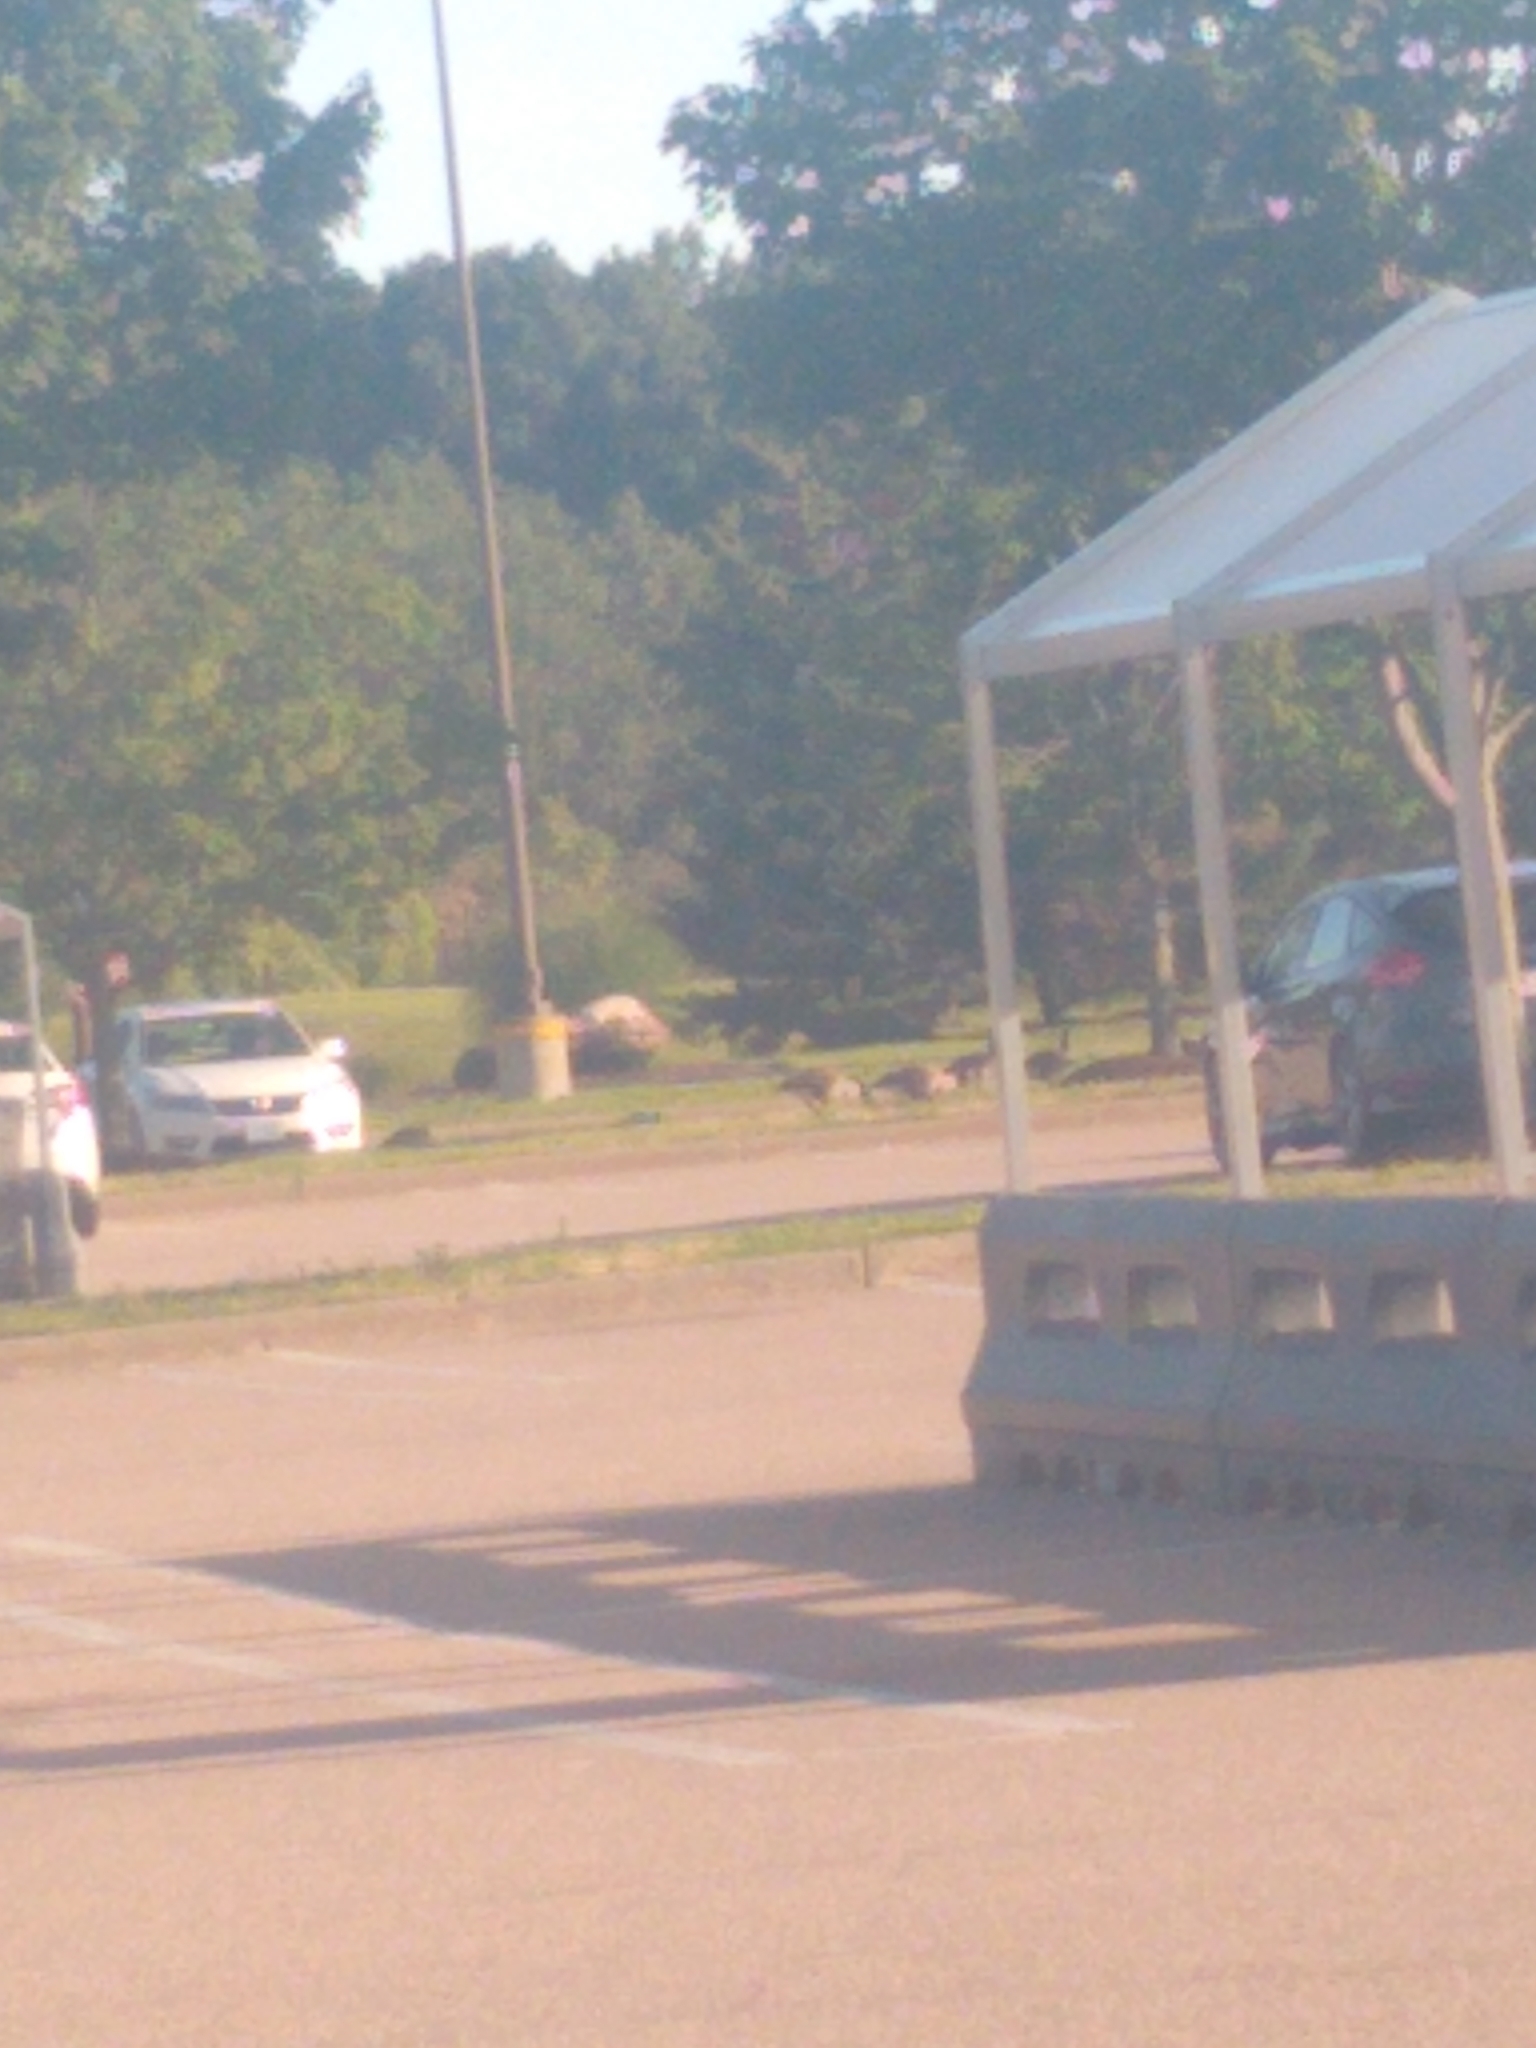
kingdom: Animalia
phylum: Chordata
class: Aves
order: Anseriformes
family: Anatidae
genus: Branta
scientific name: Branta canadensis
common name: Canada goose
